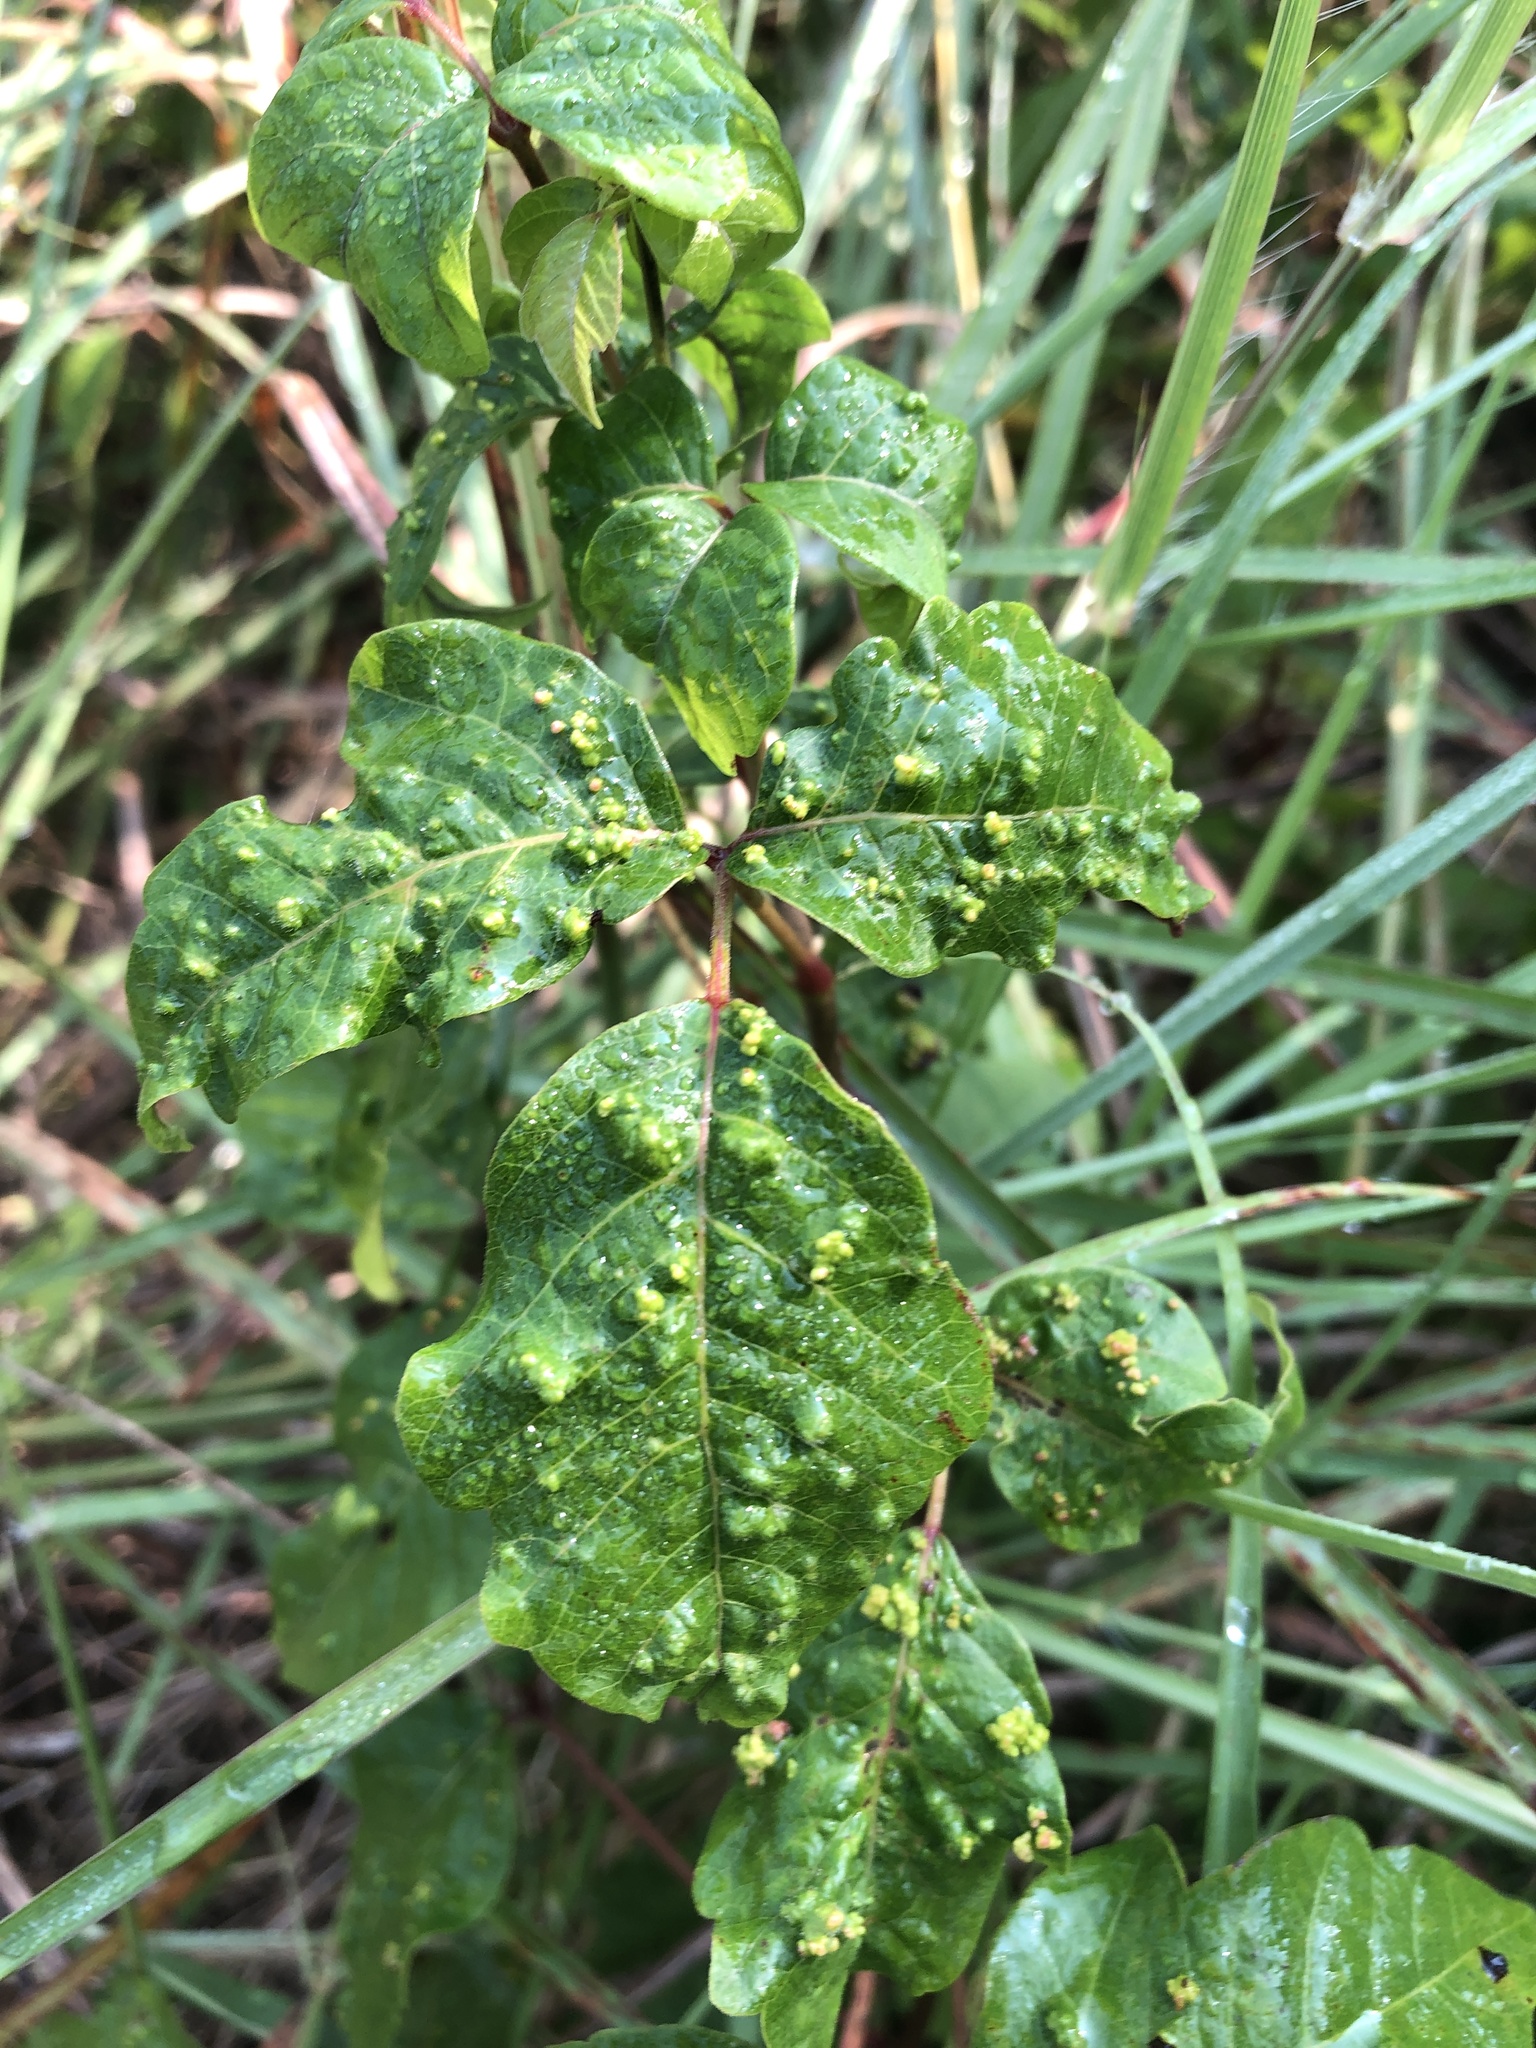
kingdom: Animalia
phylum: Arthropoda
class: Arachnida
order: Trombidiformes
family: Eriophyidae
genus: Aculops
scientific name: Aculops
